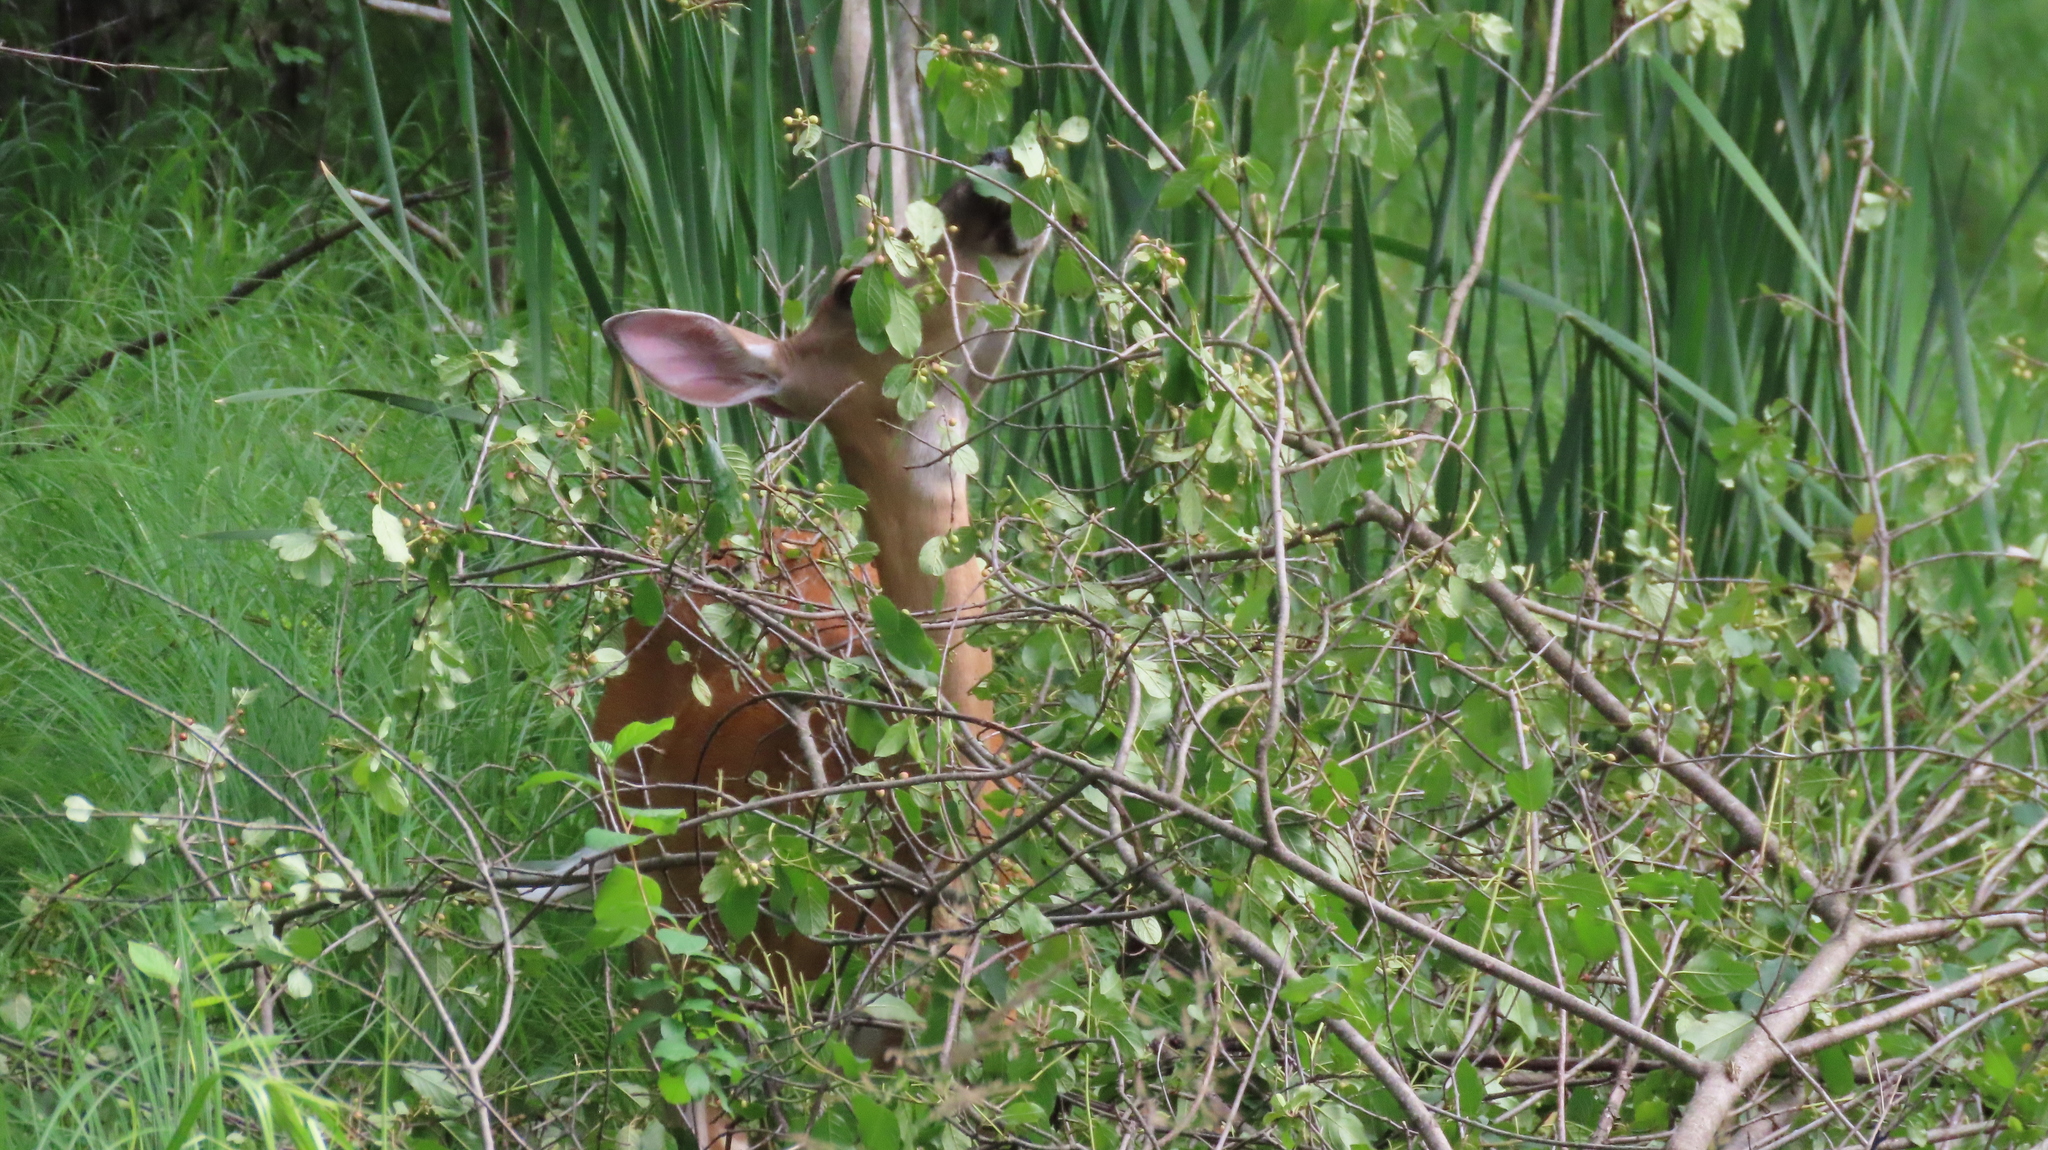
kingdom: Animalia
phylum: Chordata
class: Mammalia
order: Artiodactyla
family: Cervidae
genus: Odocoileus
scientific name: Odocoileus virginianus
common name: White-tailed deer
